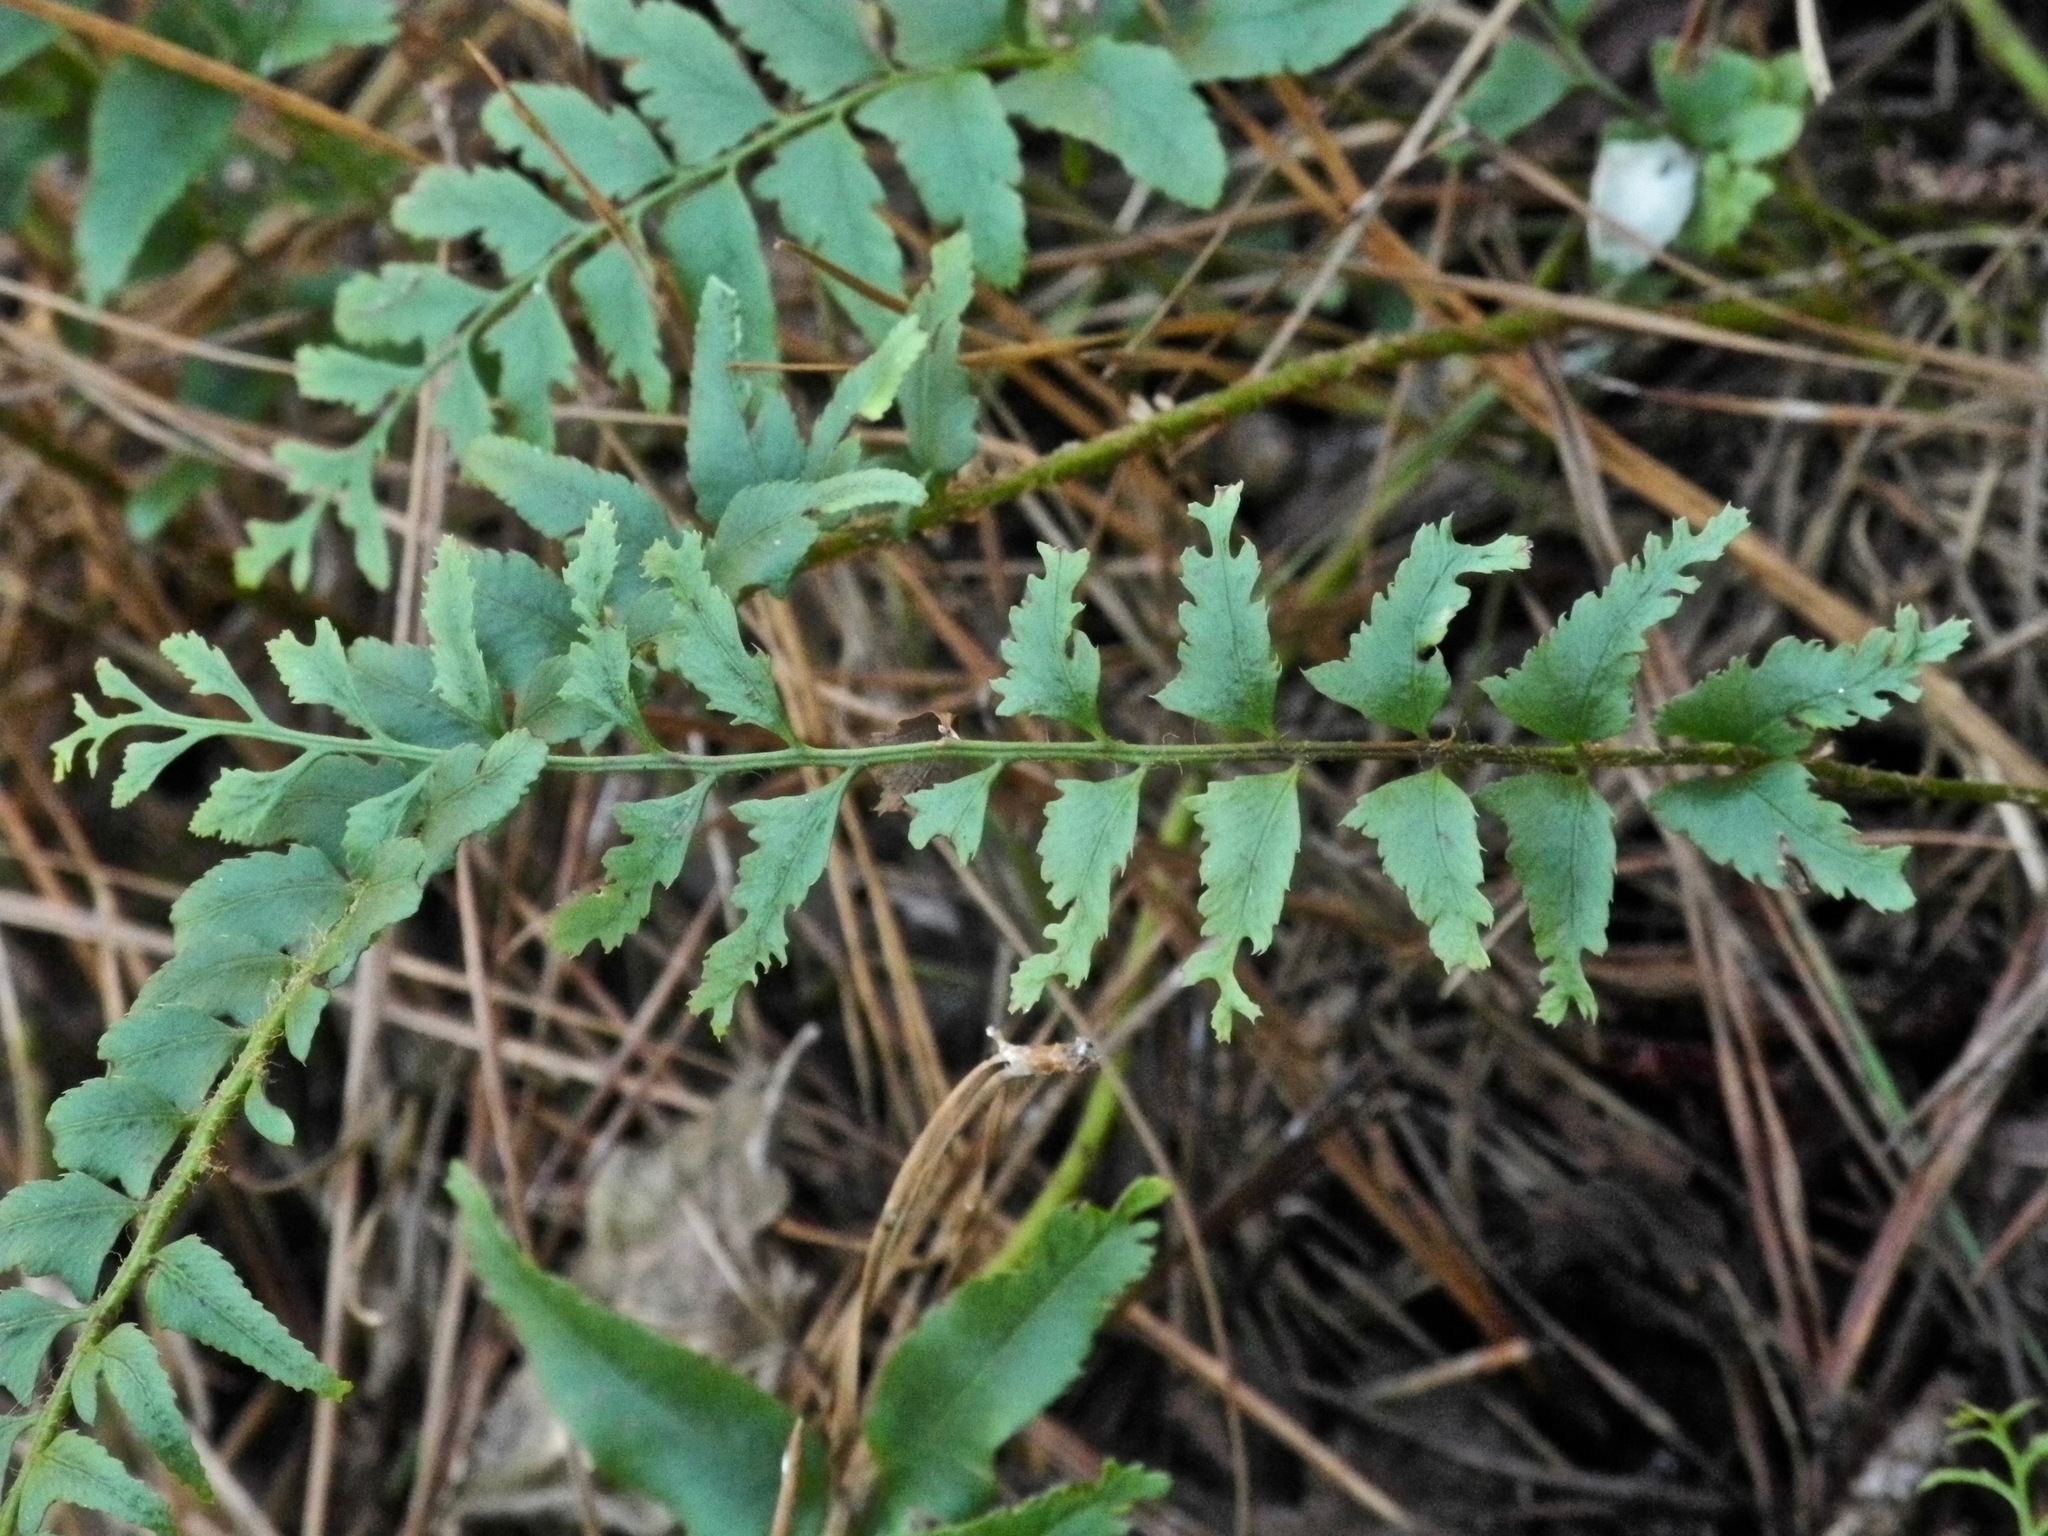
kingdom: Plantae
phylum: Tracheophyta
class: Polypodiopsida
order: Polypodiales
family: Dryopteridaceae
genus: Polystichum
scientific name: Polystichum acrostichoides
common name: Christmas fern
